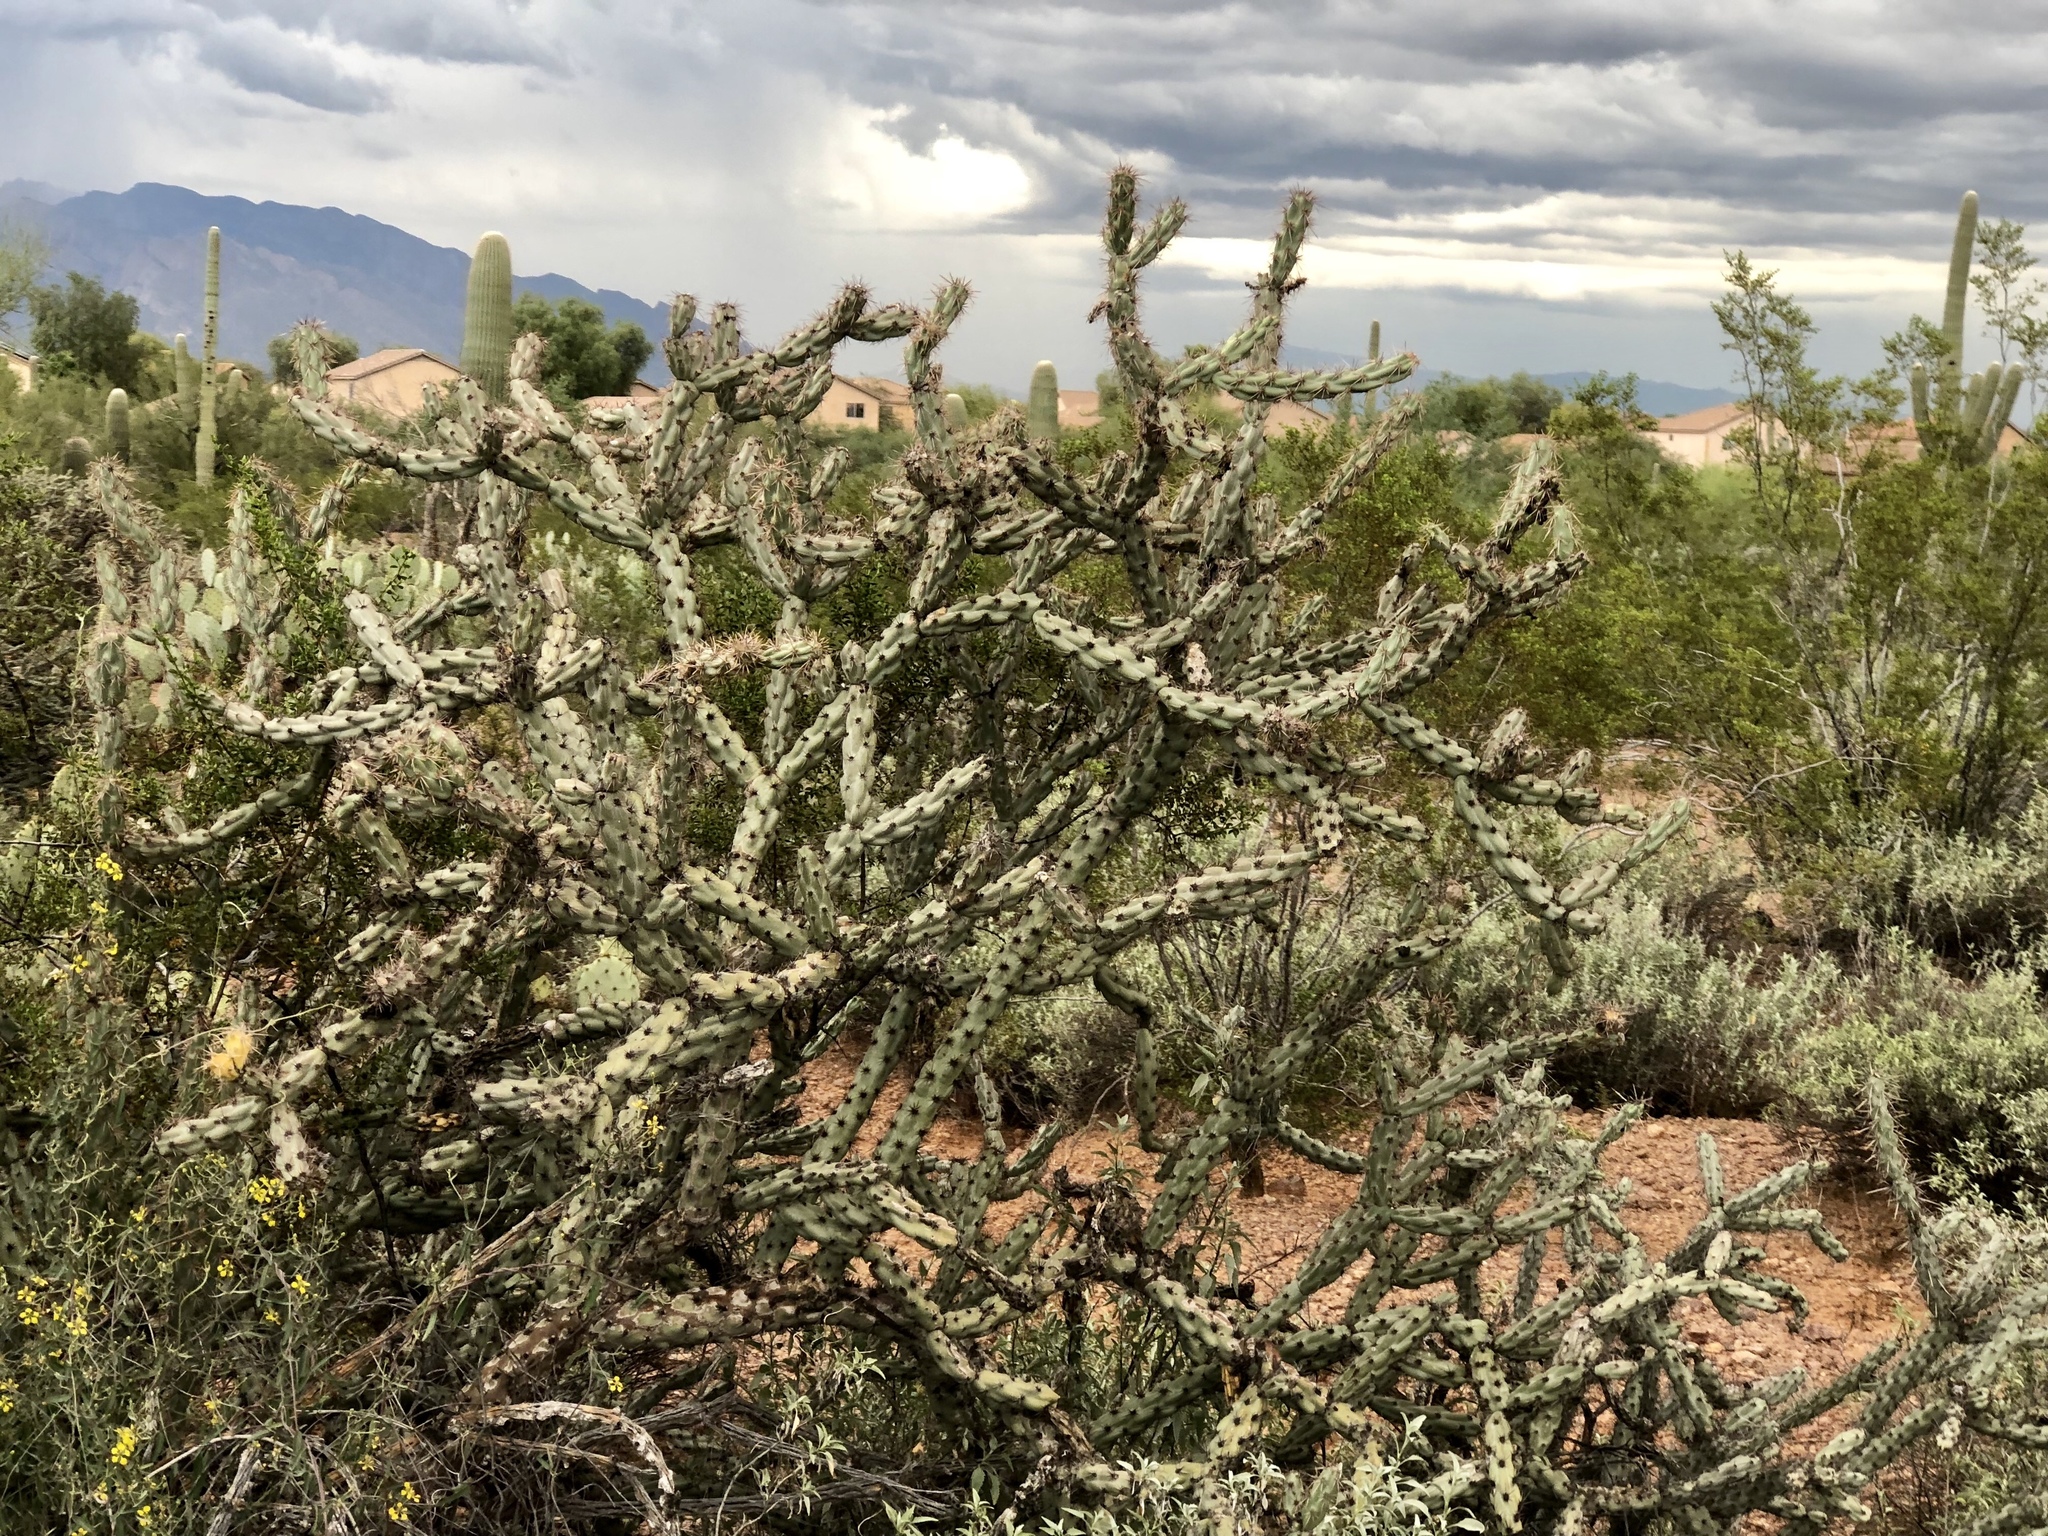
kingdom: Plantae
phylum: Tracheophyta
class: Magnoliopsida
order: Caryophyllales
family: Cactaceae
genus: Cylindropuntia
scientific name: Cylindropuntia acanthocarpa
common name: Buckhorn cholla
